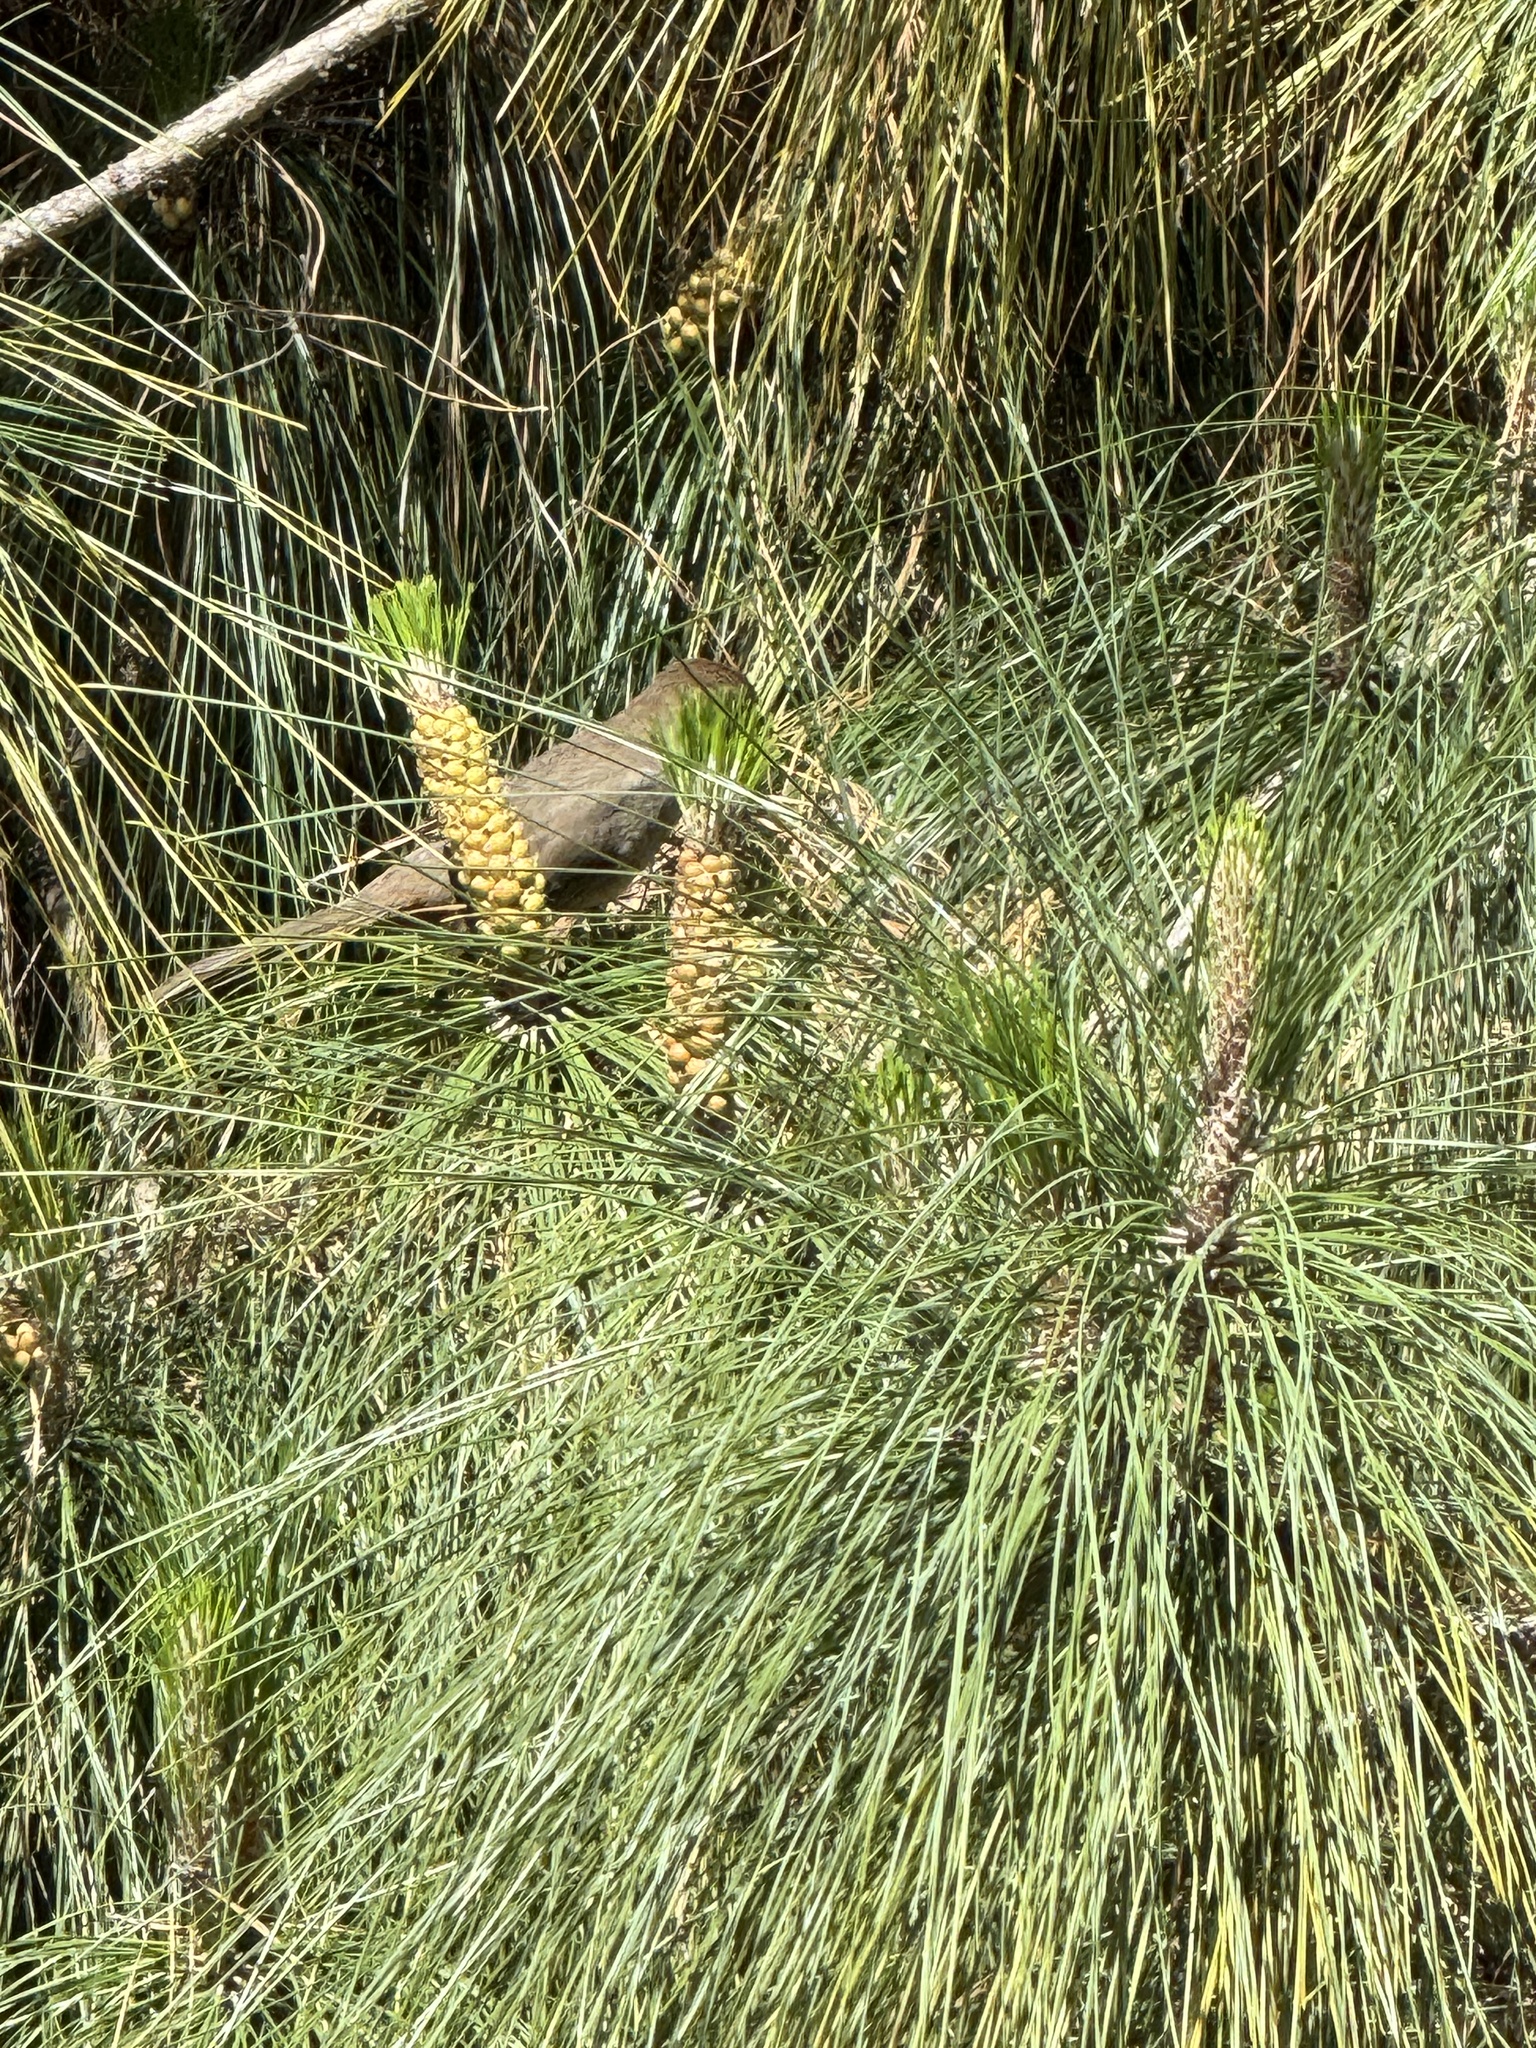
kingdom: Animalia
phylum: Chordata
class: Aves
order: Passeriformes
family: Passerellidae
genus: Melozone
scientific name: Melozone crissalis
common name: California towhee
